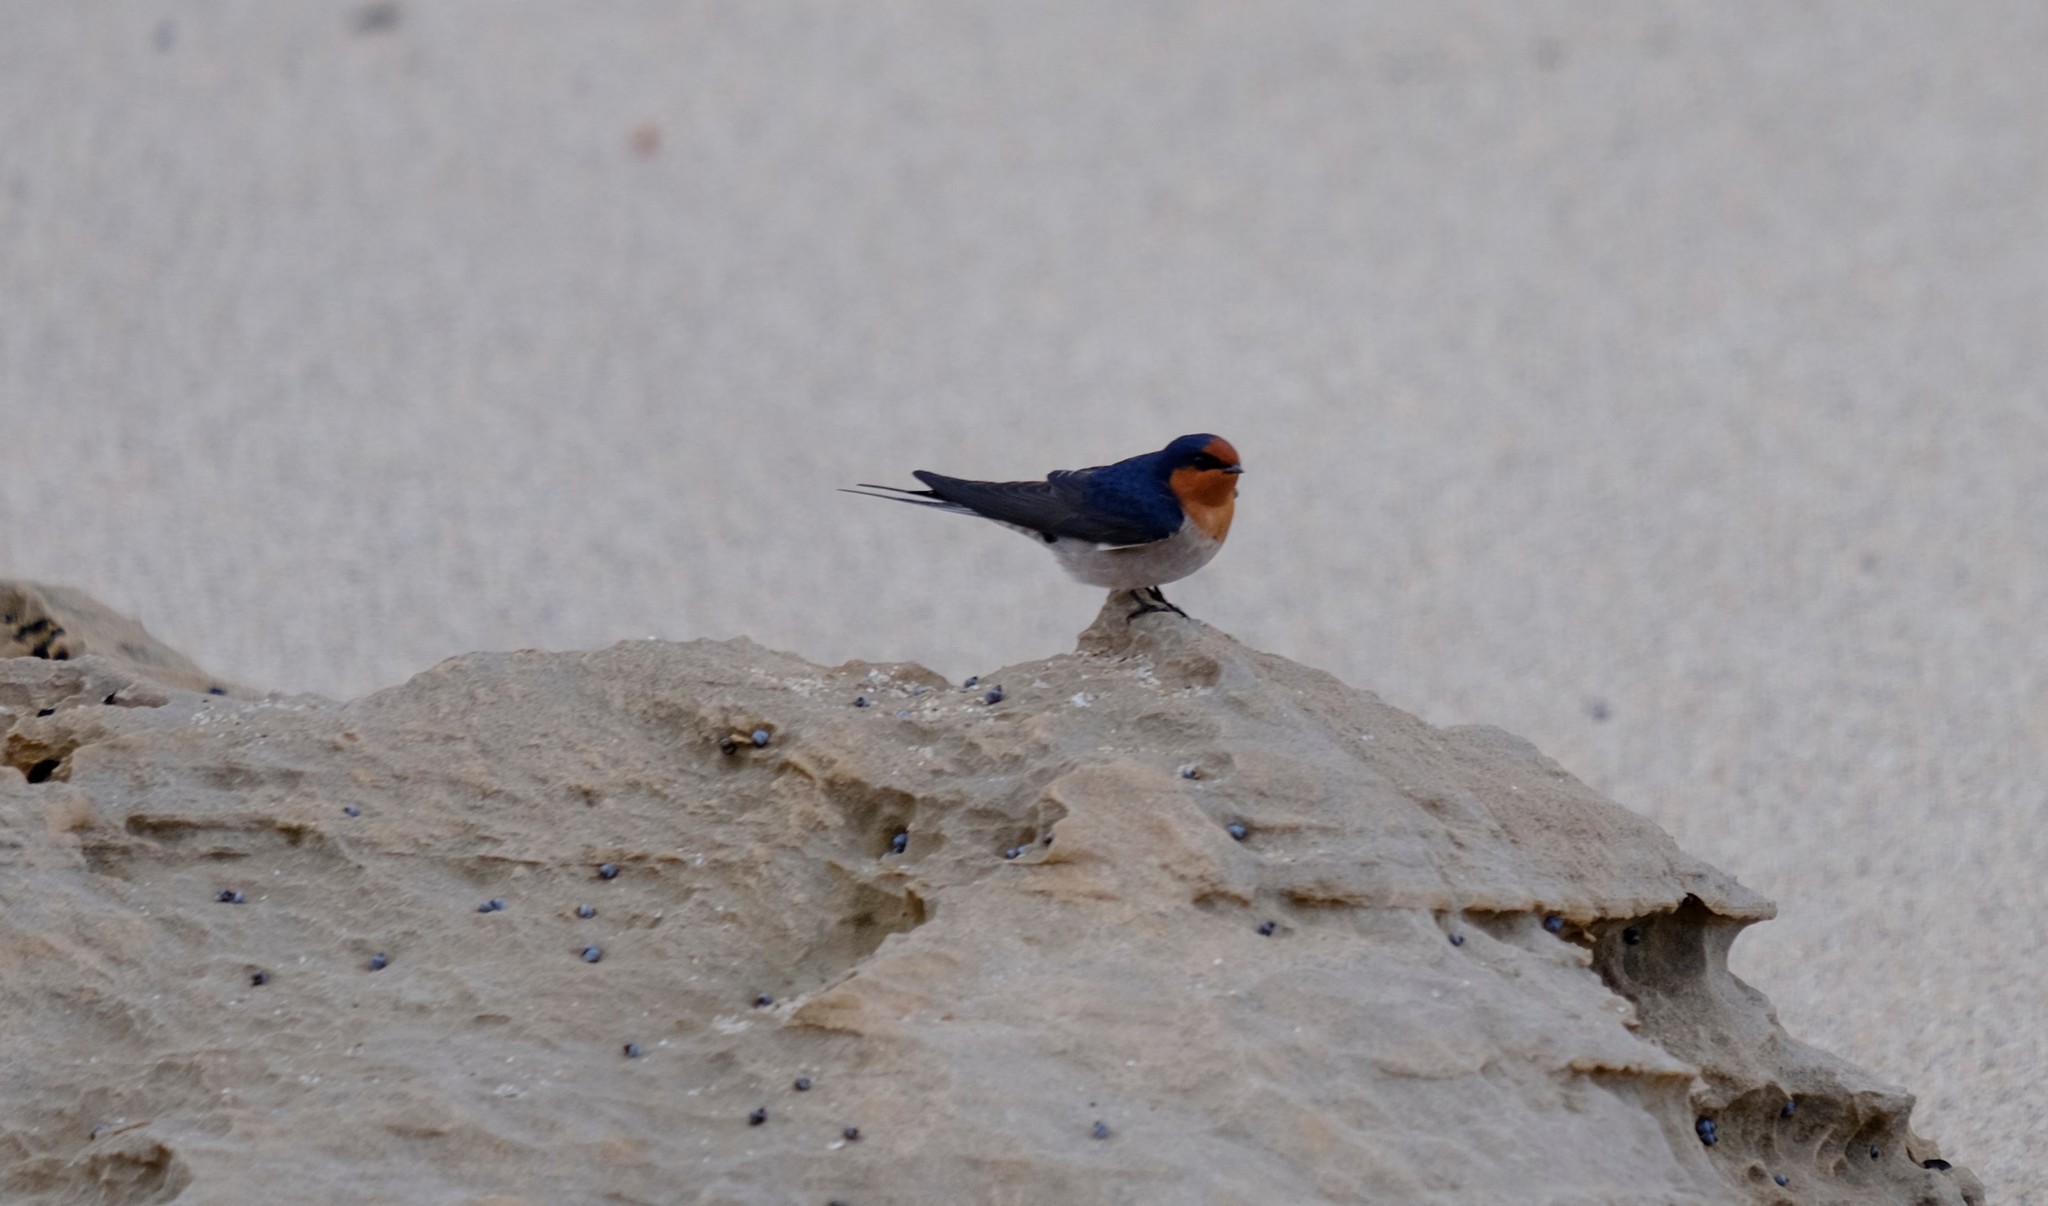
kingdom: Animalia
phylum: Chordata
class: Aves
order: Passeriformes
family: Hirundinidae
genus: Hirundo
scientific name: Hirundo neoxena
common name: Welcome swallow
